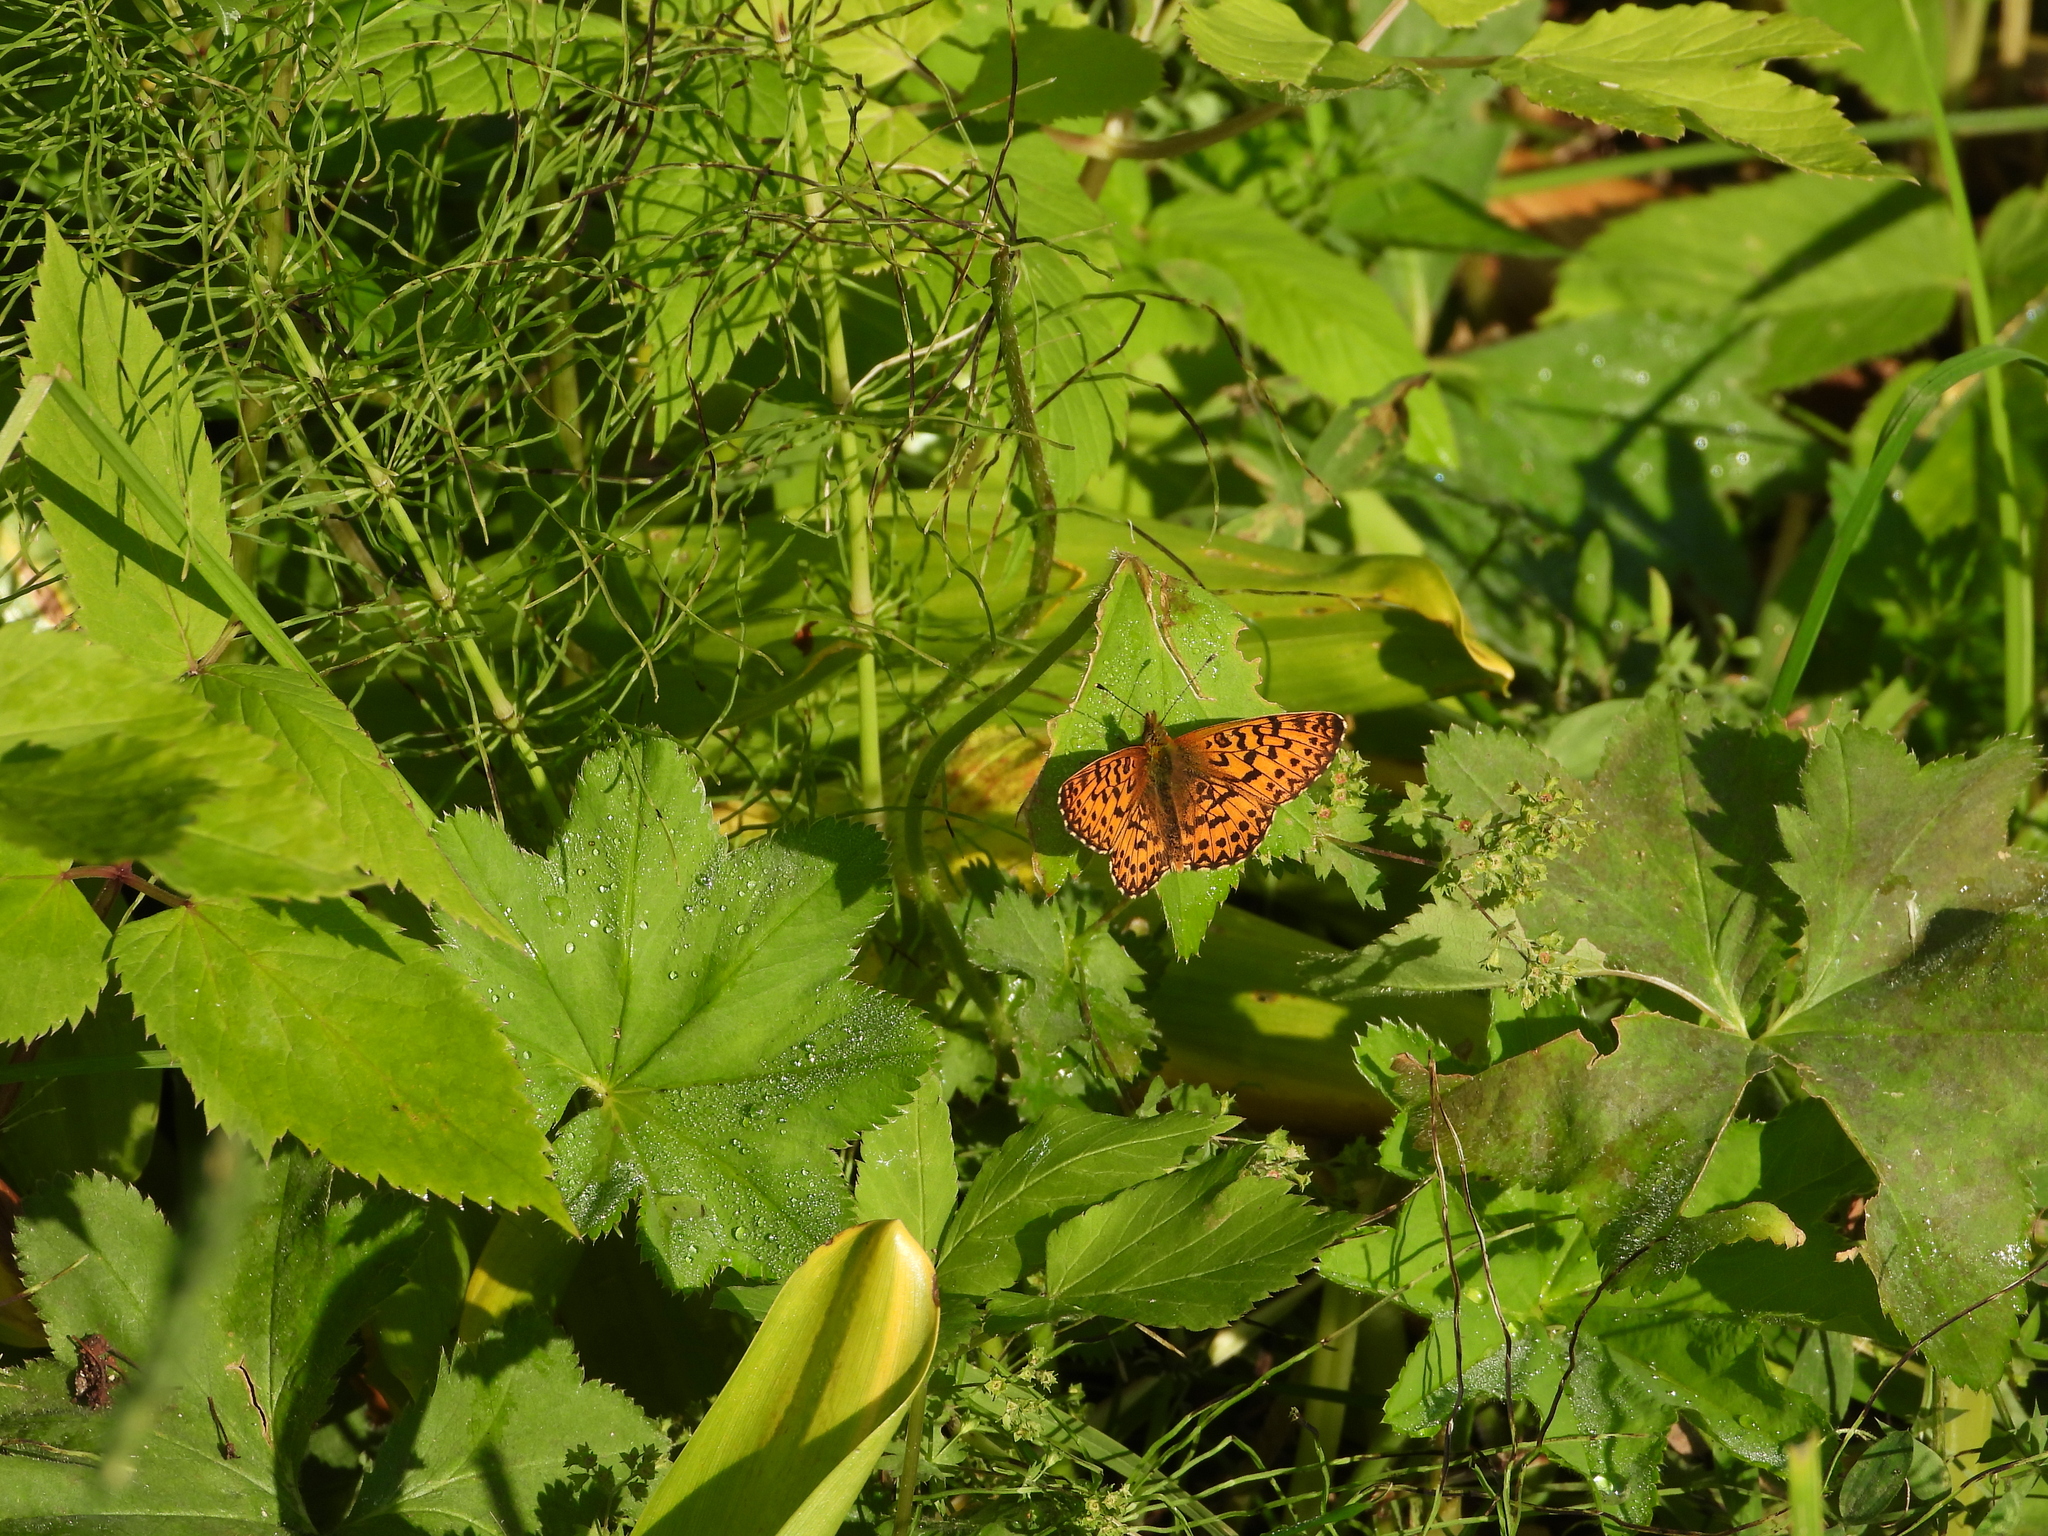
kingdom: Animalia
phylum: Arthropoda
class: Insecta
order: Lepidoptera
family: Nymphalidae
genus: Boloria
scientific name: Boloria titania
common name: Titania's fritillary
